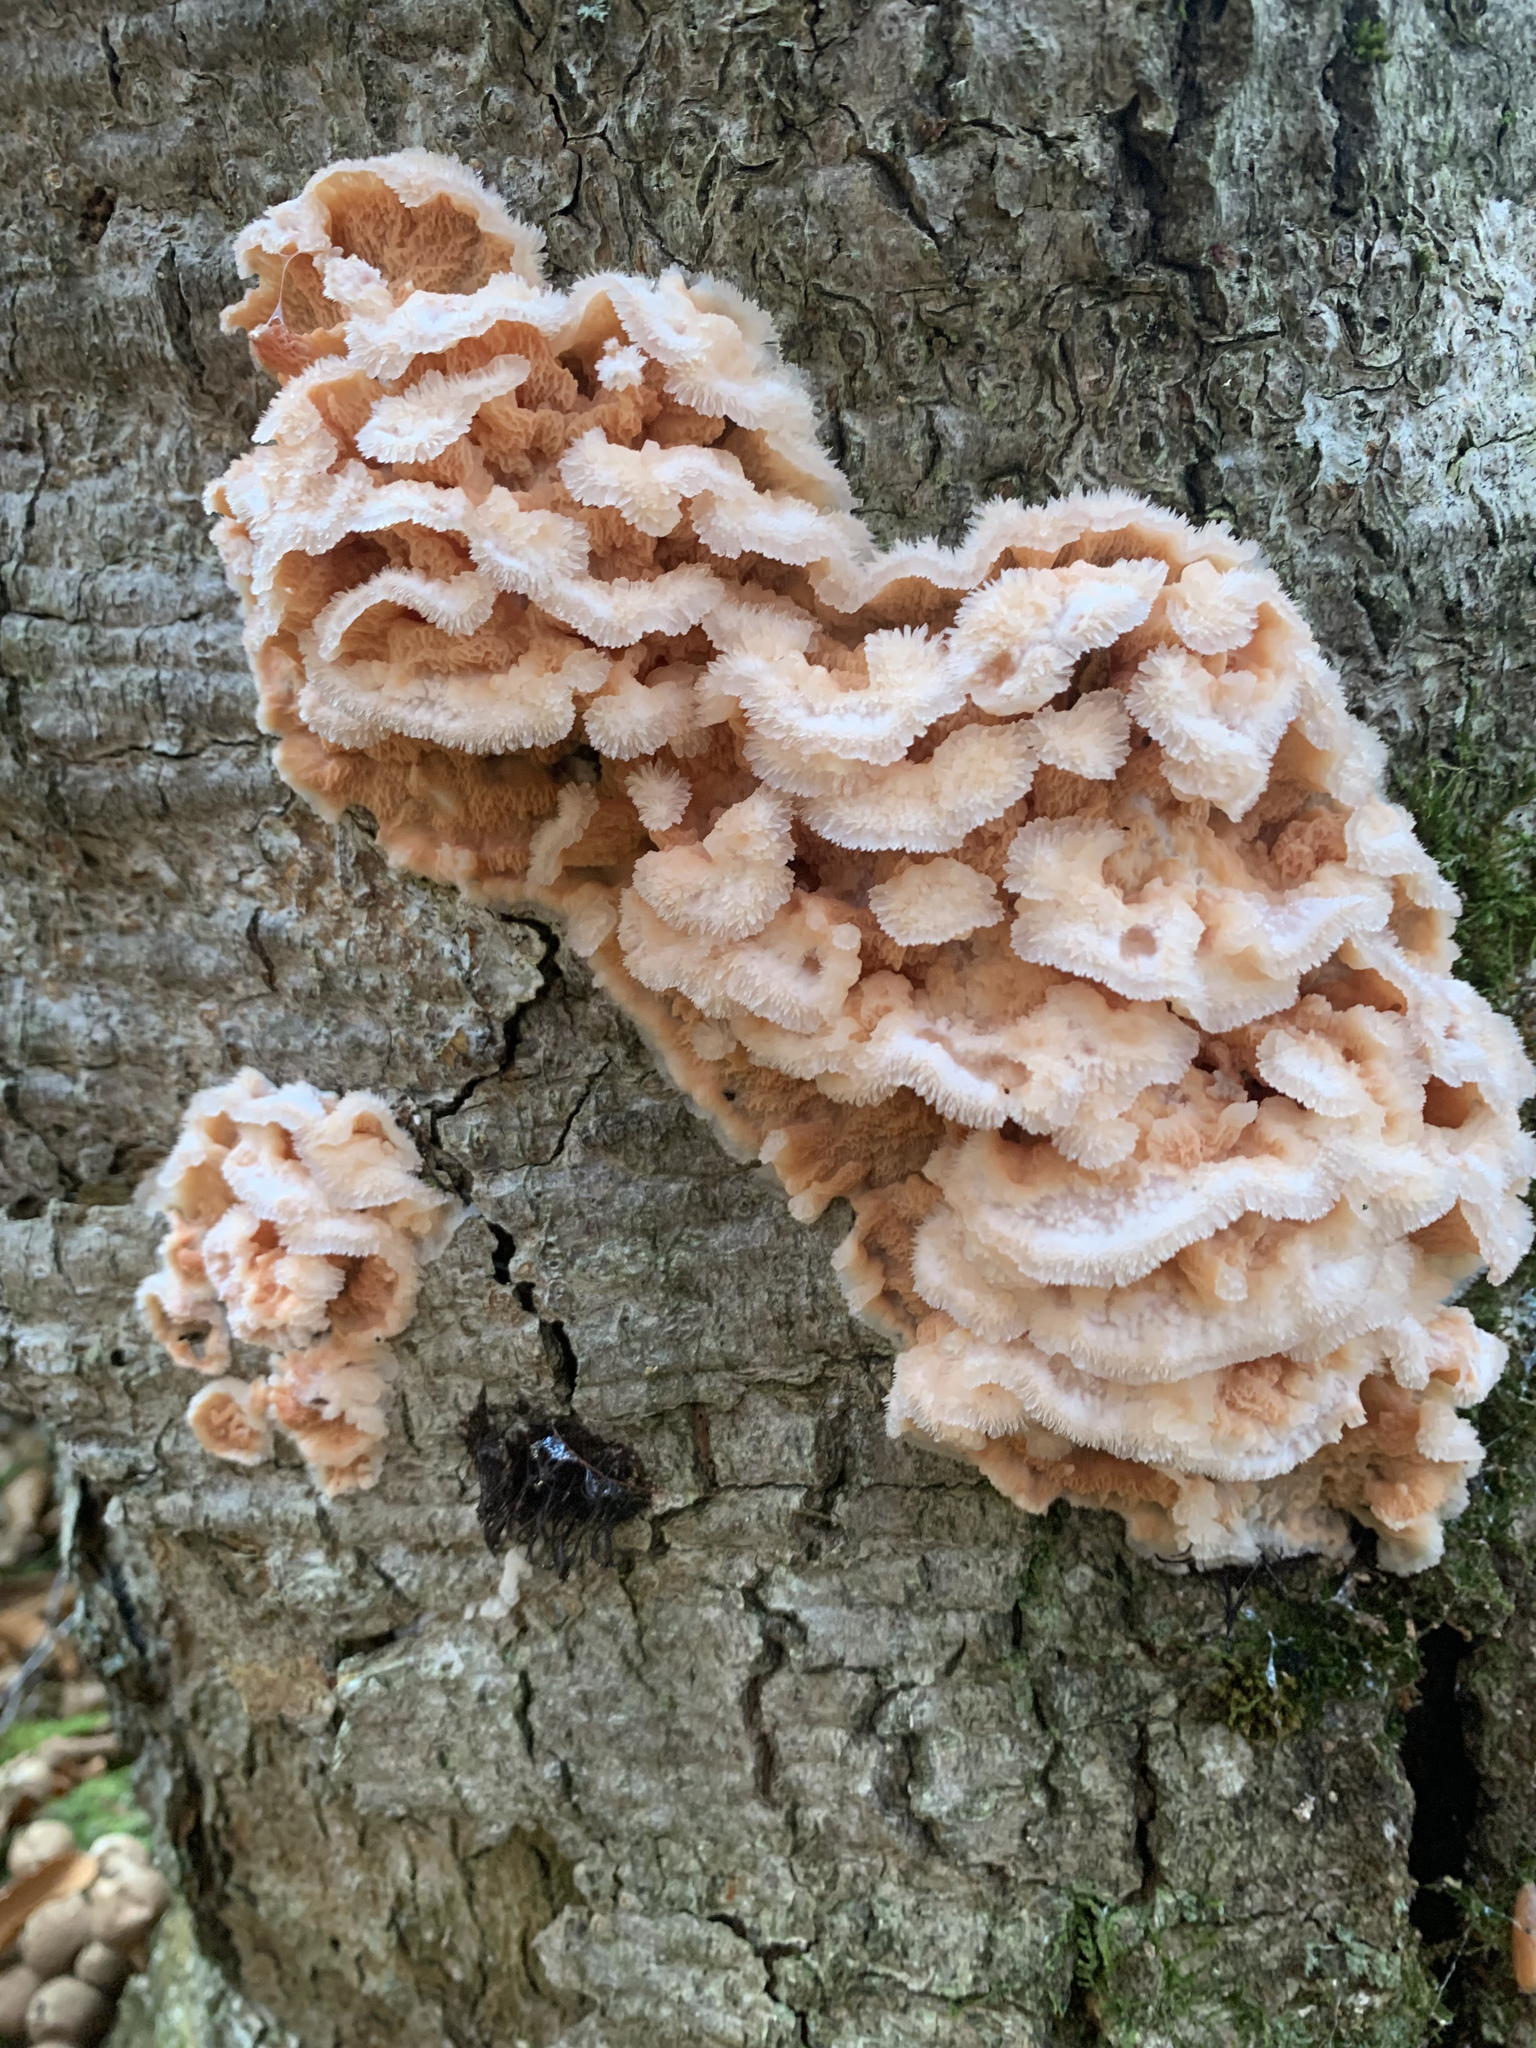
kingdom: Fungi
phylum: Basidiomycota
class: Agaricomycetes
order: Polyporales
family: Meruliaceae
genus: Phlebia
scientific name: Phlebia tremellosa
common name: Jelly rot
